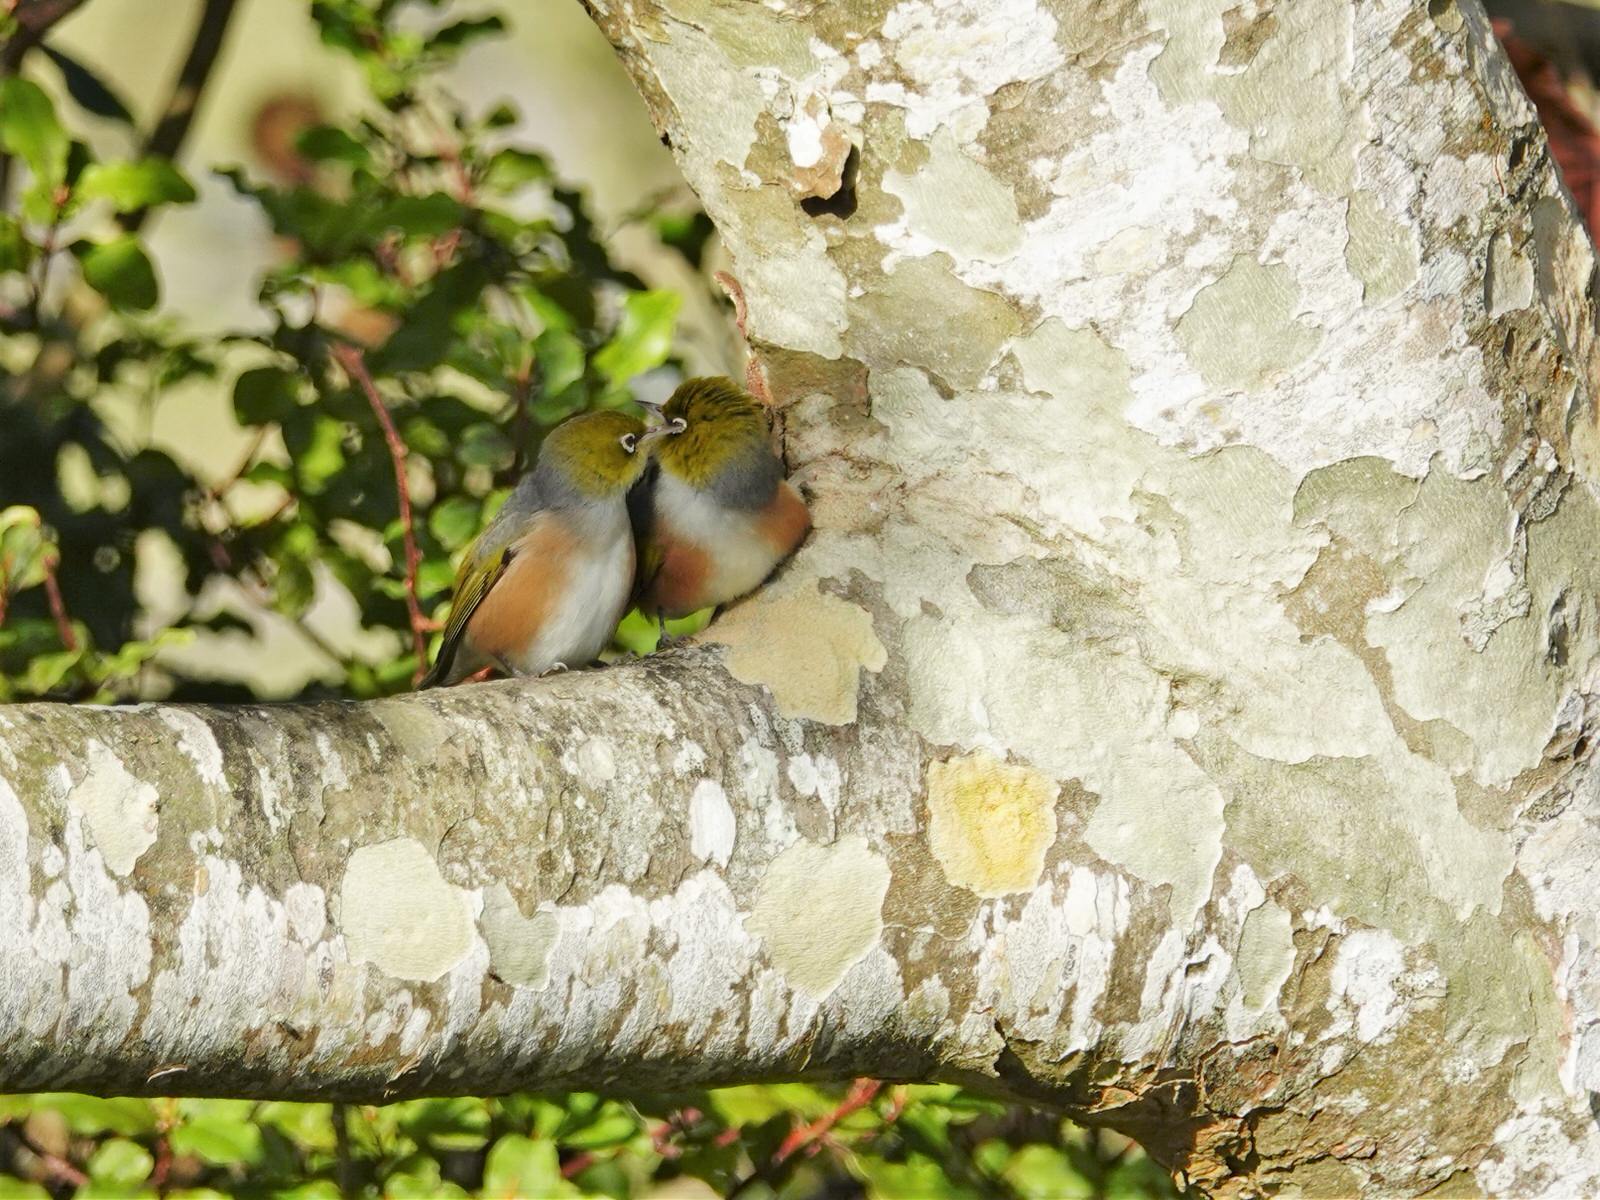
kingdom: Animalia
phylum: Chordata
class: Aves
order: Passeriformes
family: Zosteropidae
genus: Zosterops
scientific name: Zosterops lateralis
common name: Silvereye
